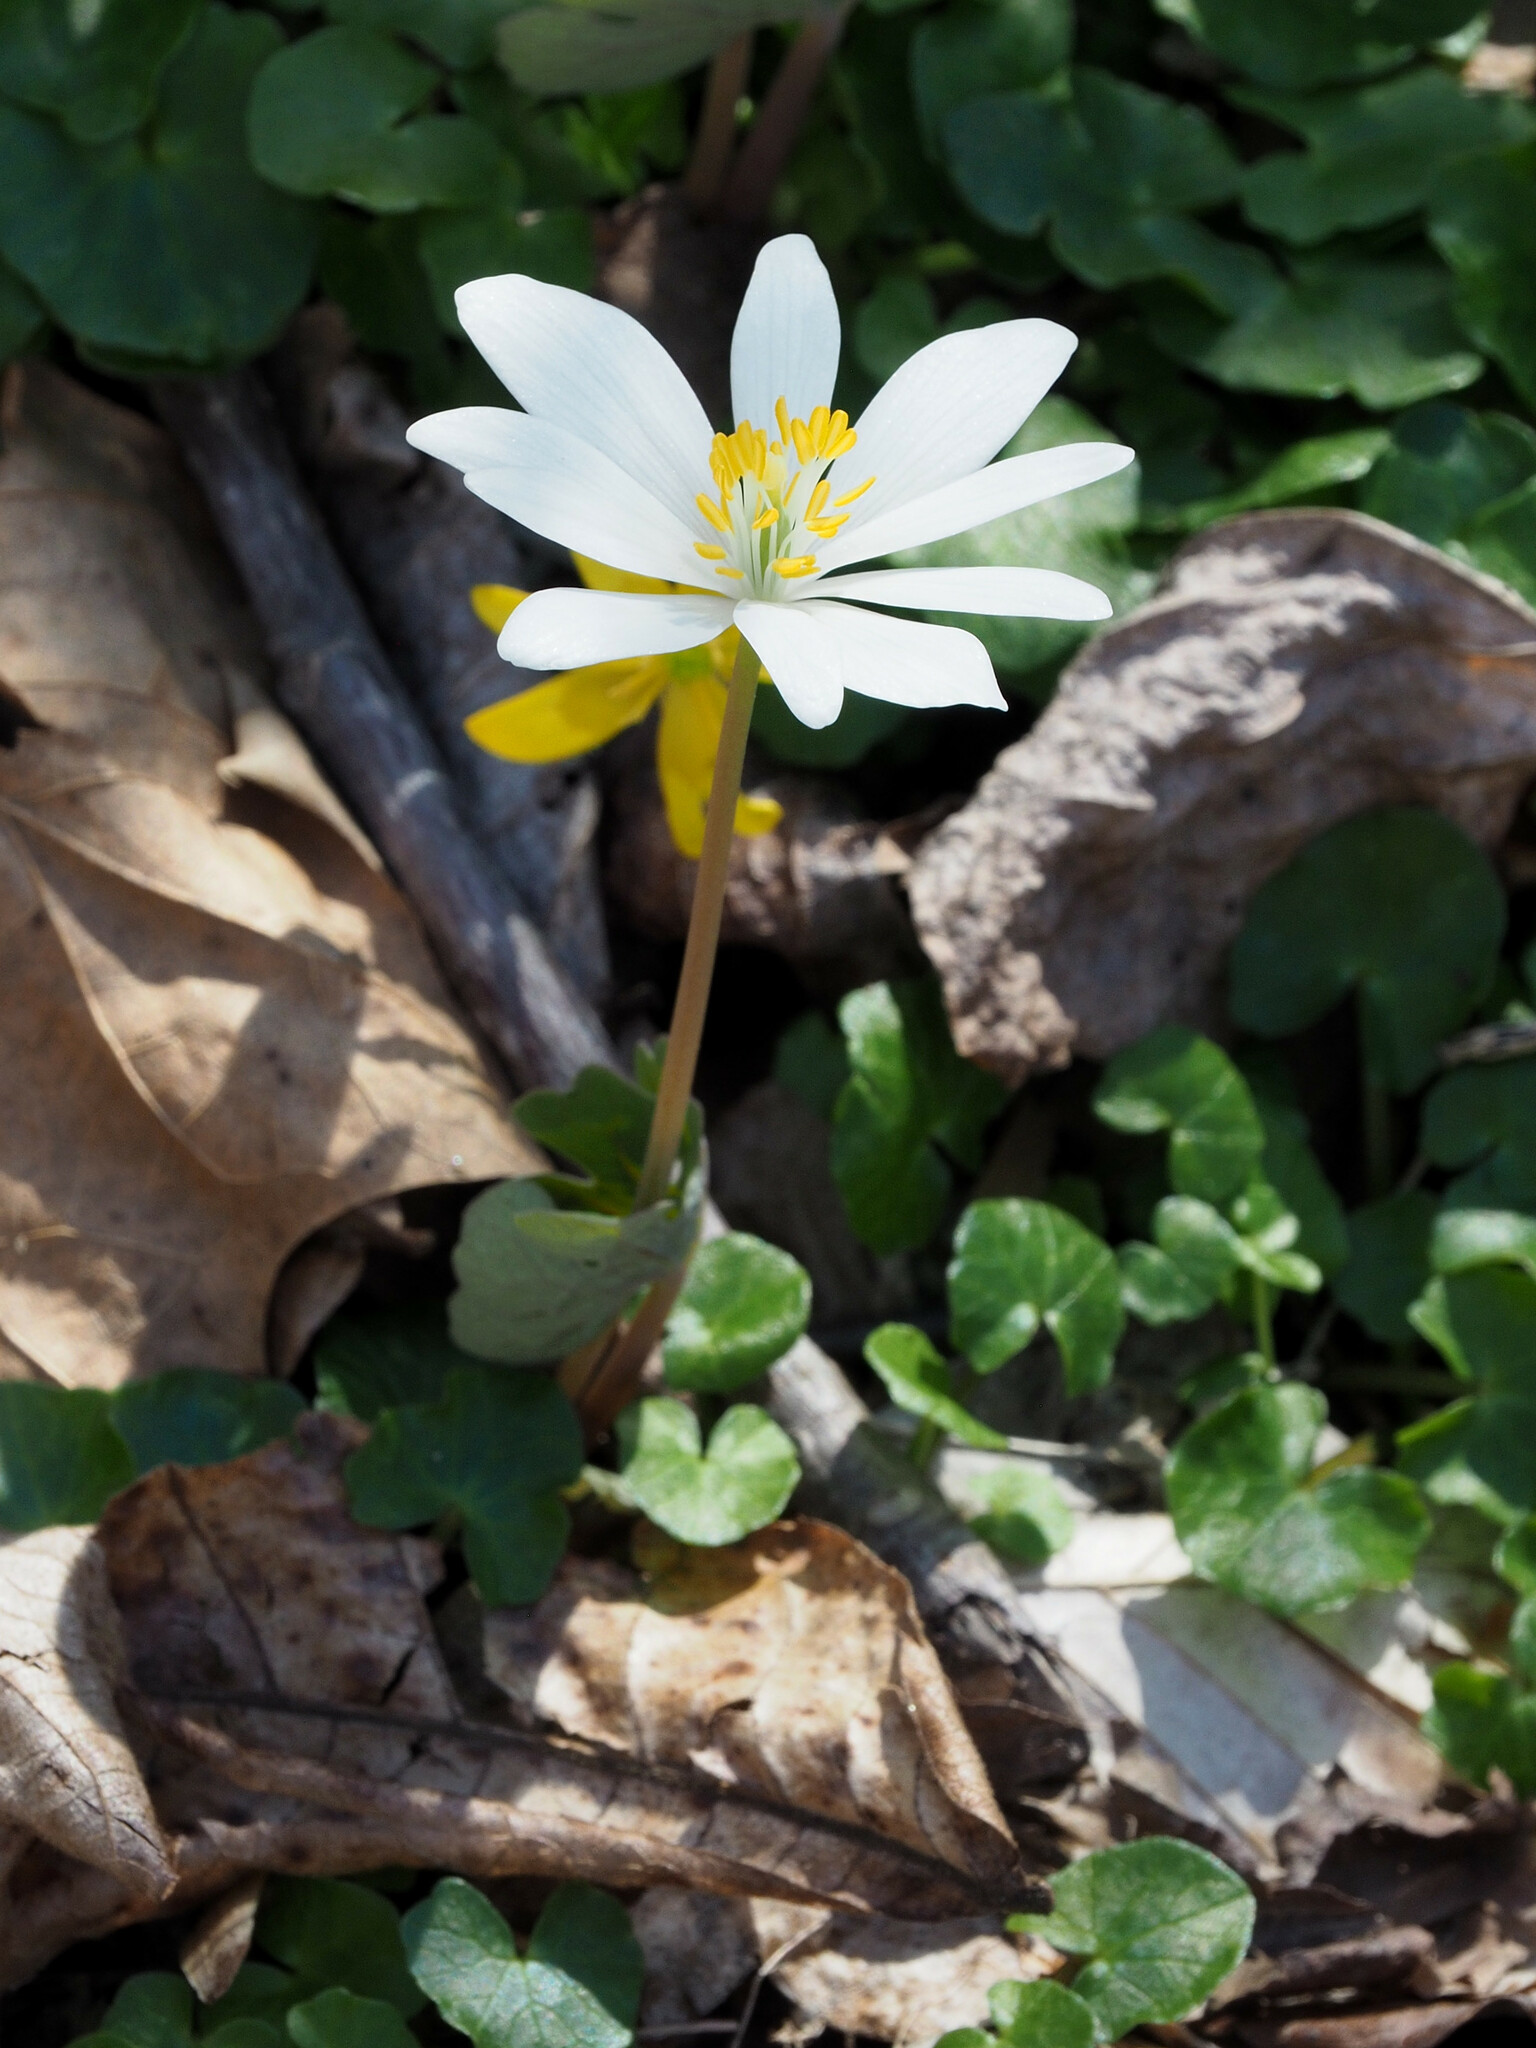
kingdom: Plantae
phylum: Tracheophyta
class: Magnoliopsida
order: Ranunculales
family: Papaveraceae
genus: Sanguinaria
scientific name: Sanguinaria canadensis
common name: Bloodroot
